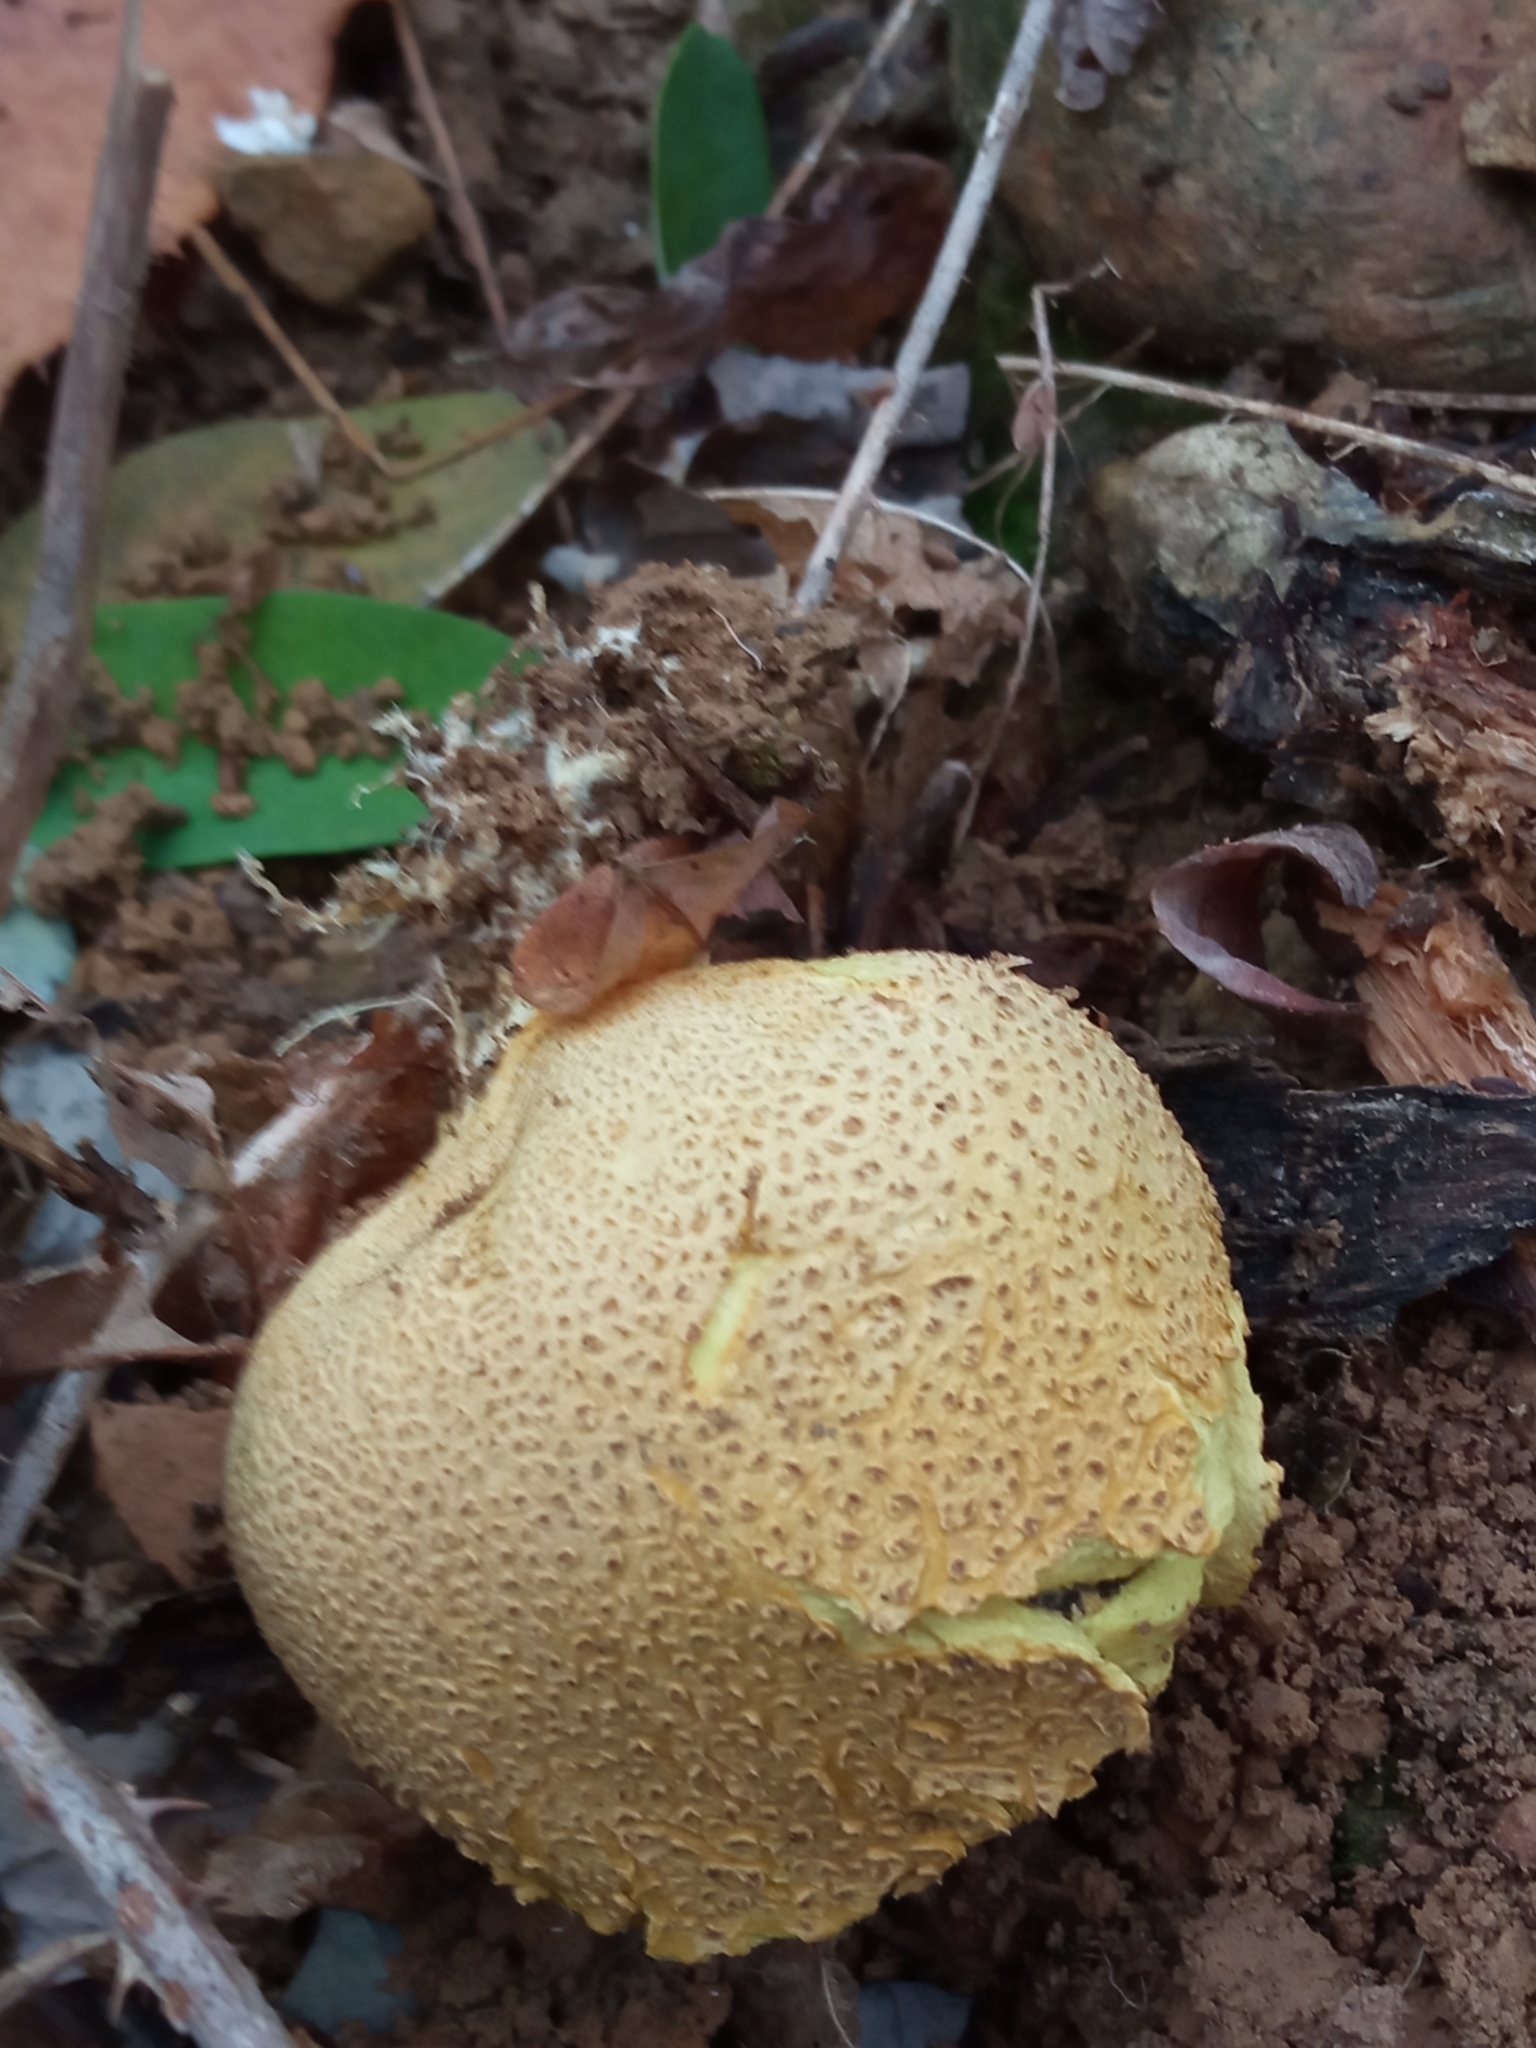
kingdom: Fungi
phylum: Basidiomycota
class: Agaricomycetes
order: Boletales
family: Sclerodermataceae
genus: Scleroderma
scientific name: Scleroderma citrinum
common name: Common earthball
